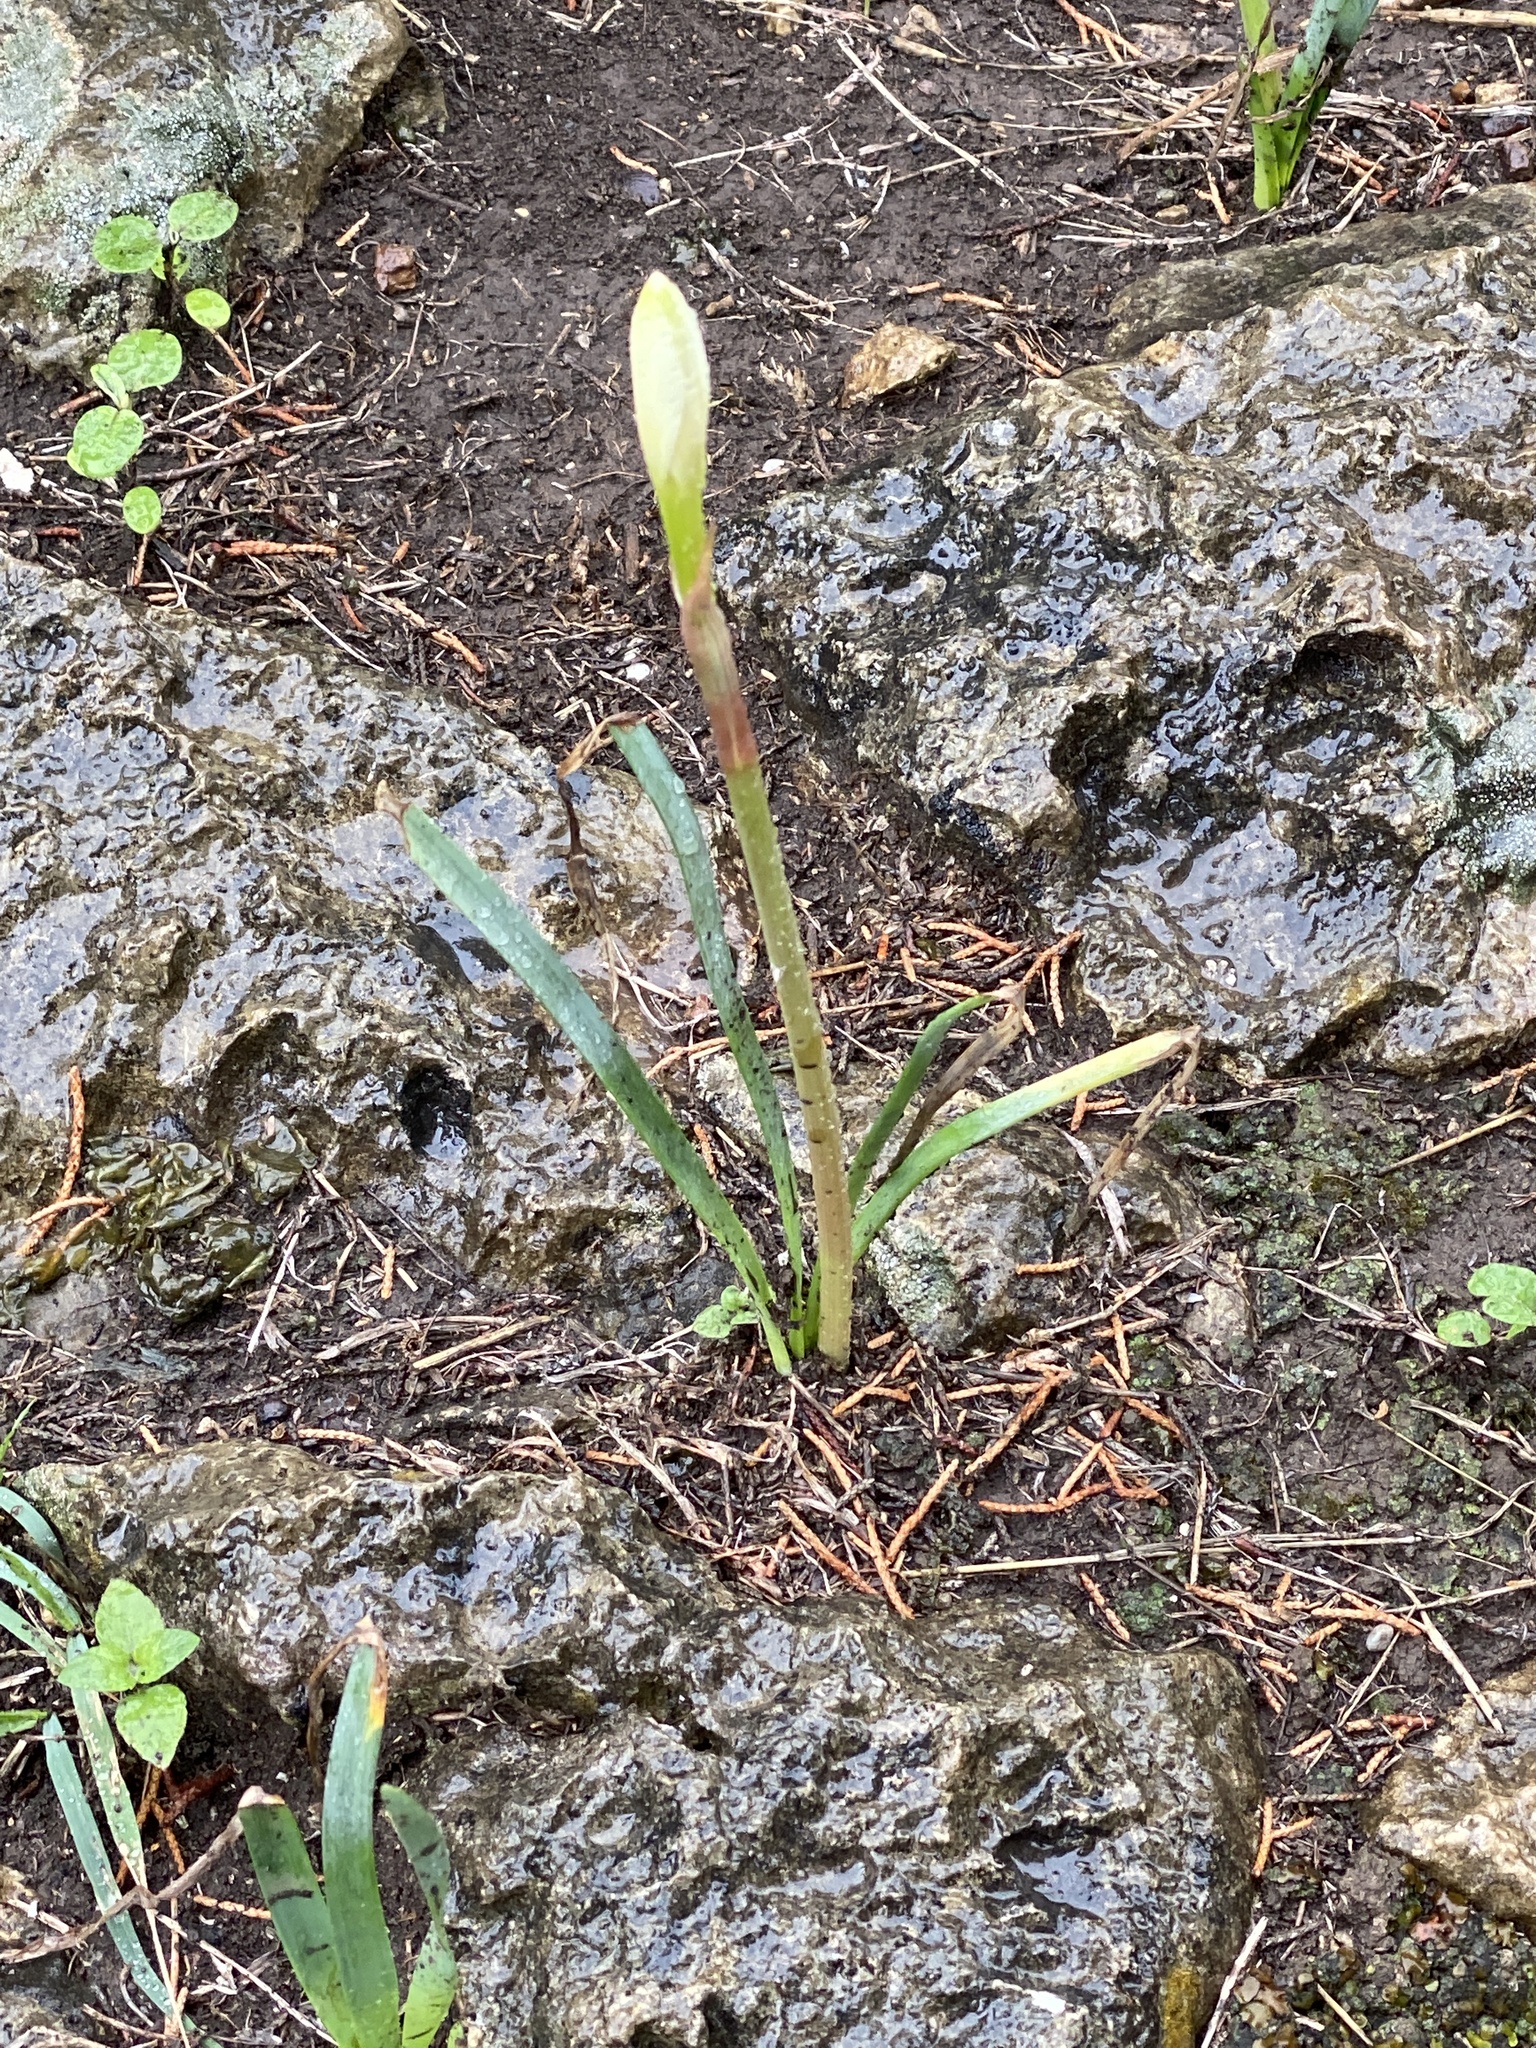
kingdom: Plantae
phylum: Tracheophyta
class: Liliopsida
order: Asparagales
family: Amaryllidaceae
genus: Zephyranthes
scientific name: Zephyranthes drummondii
